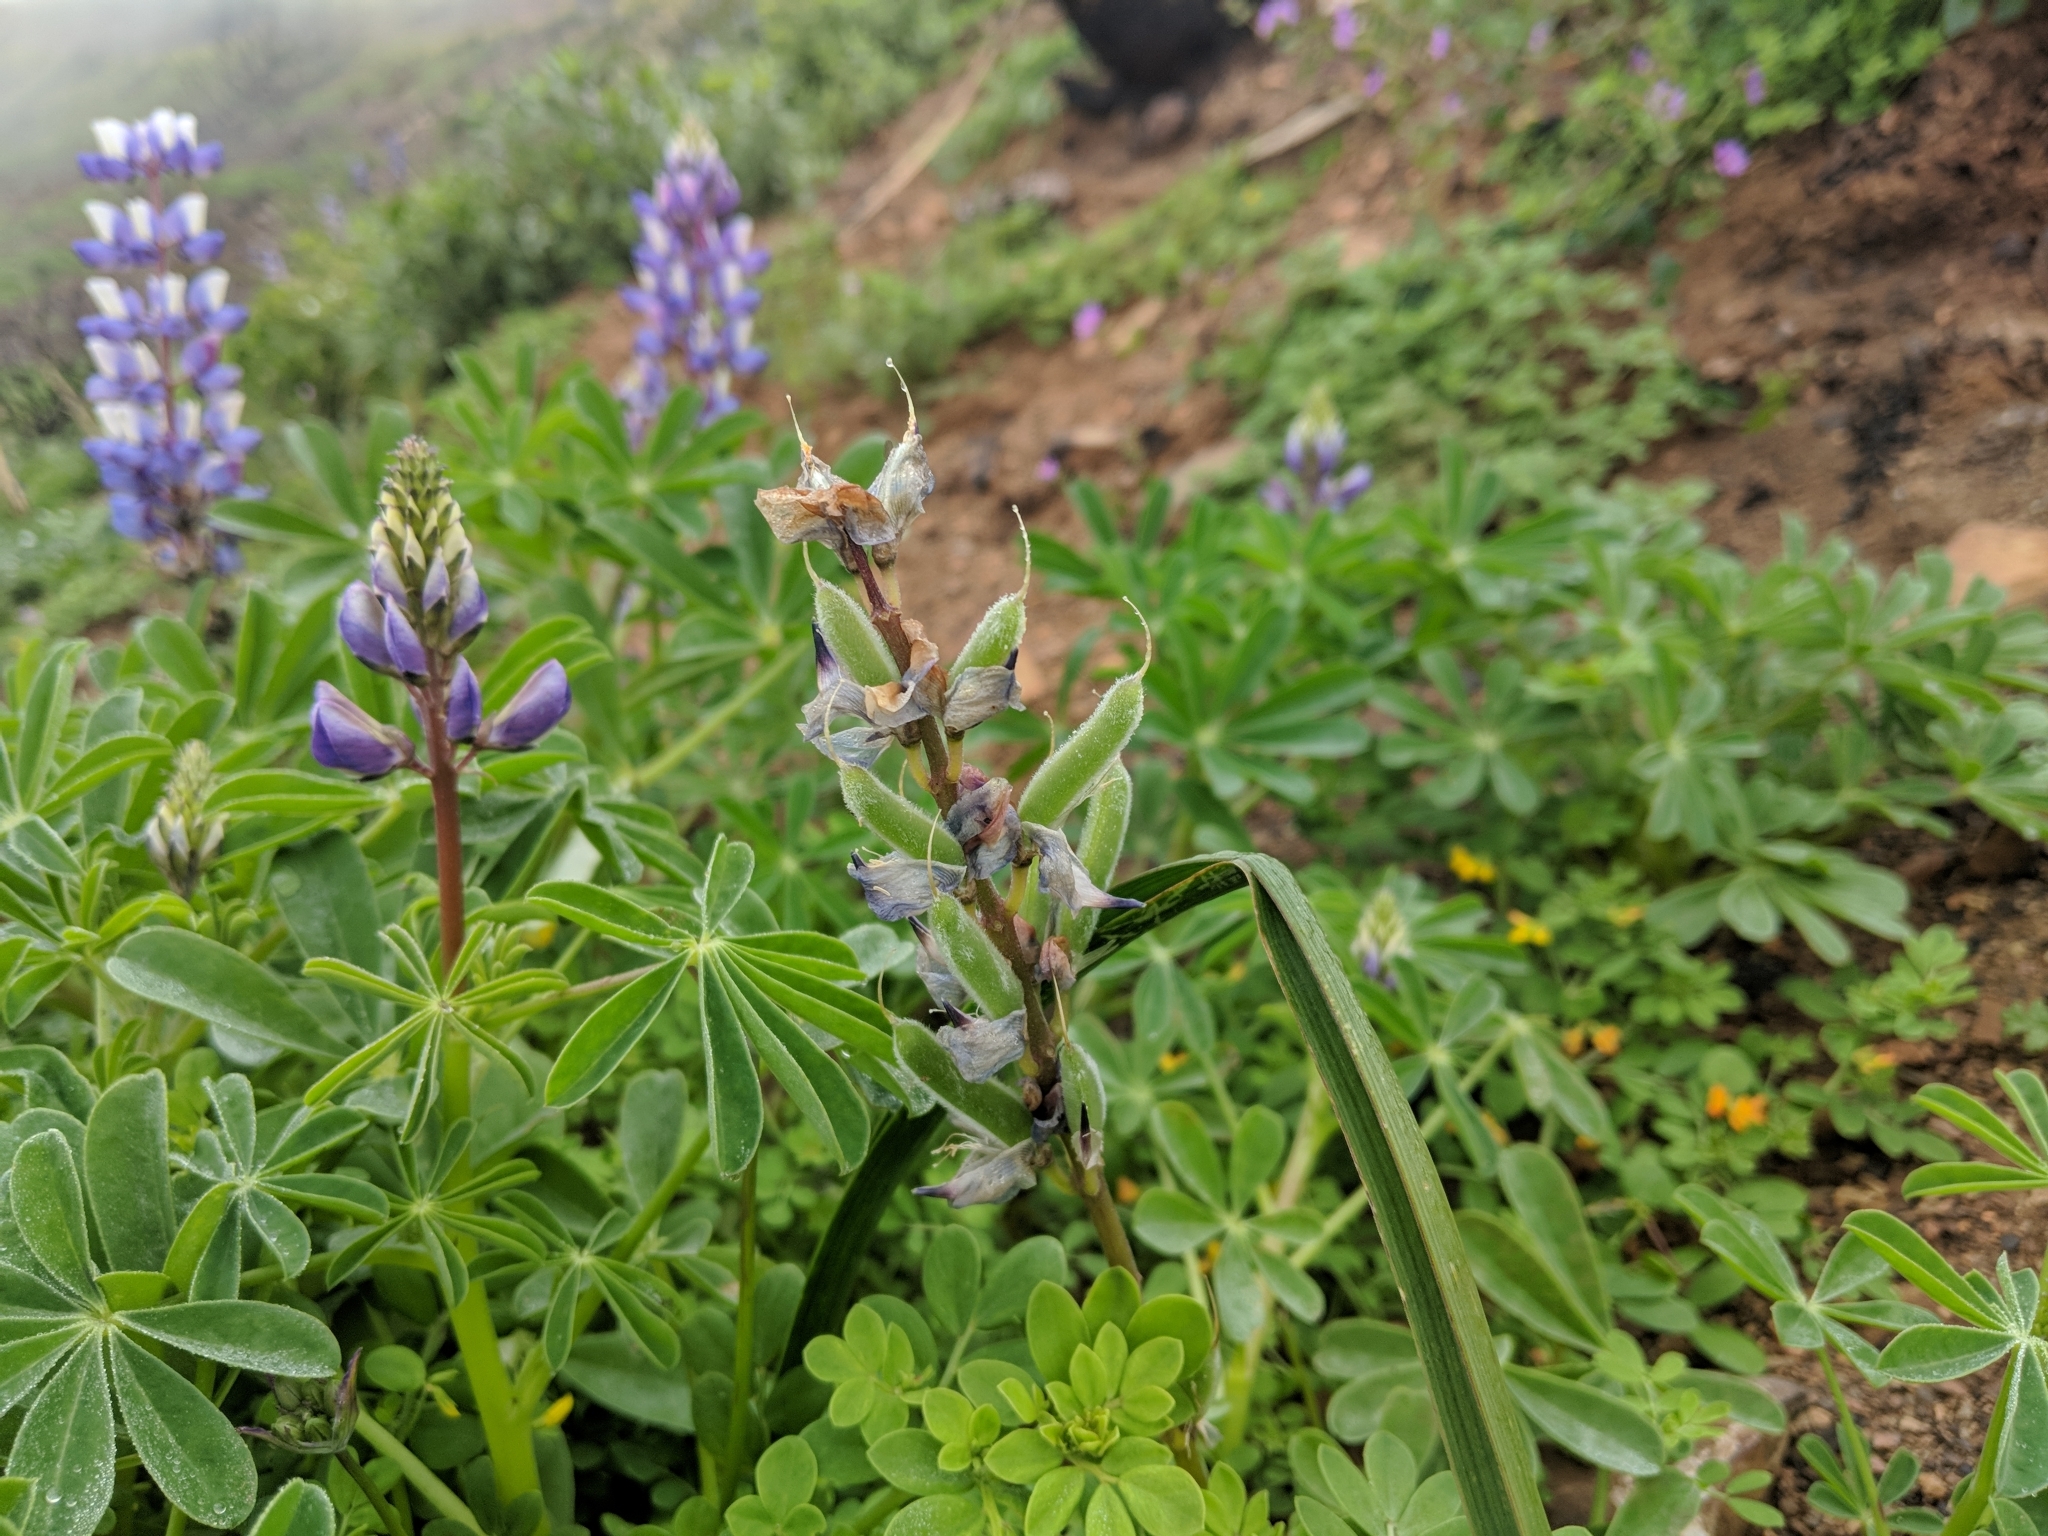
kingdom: Plantae
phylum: Tracheophyta
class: Magnoliopsida
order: Fabales
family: Fabaceae
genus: Lupinus
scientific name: Lupinus succulentus
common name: Arroyo lupine
